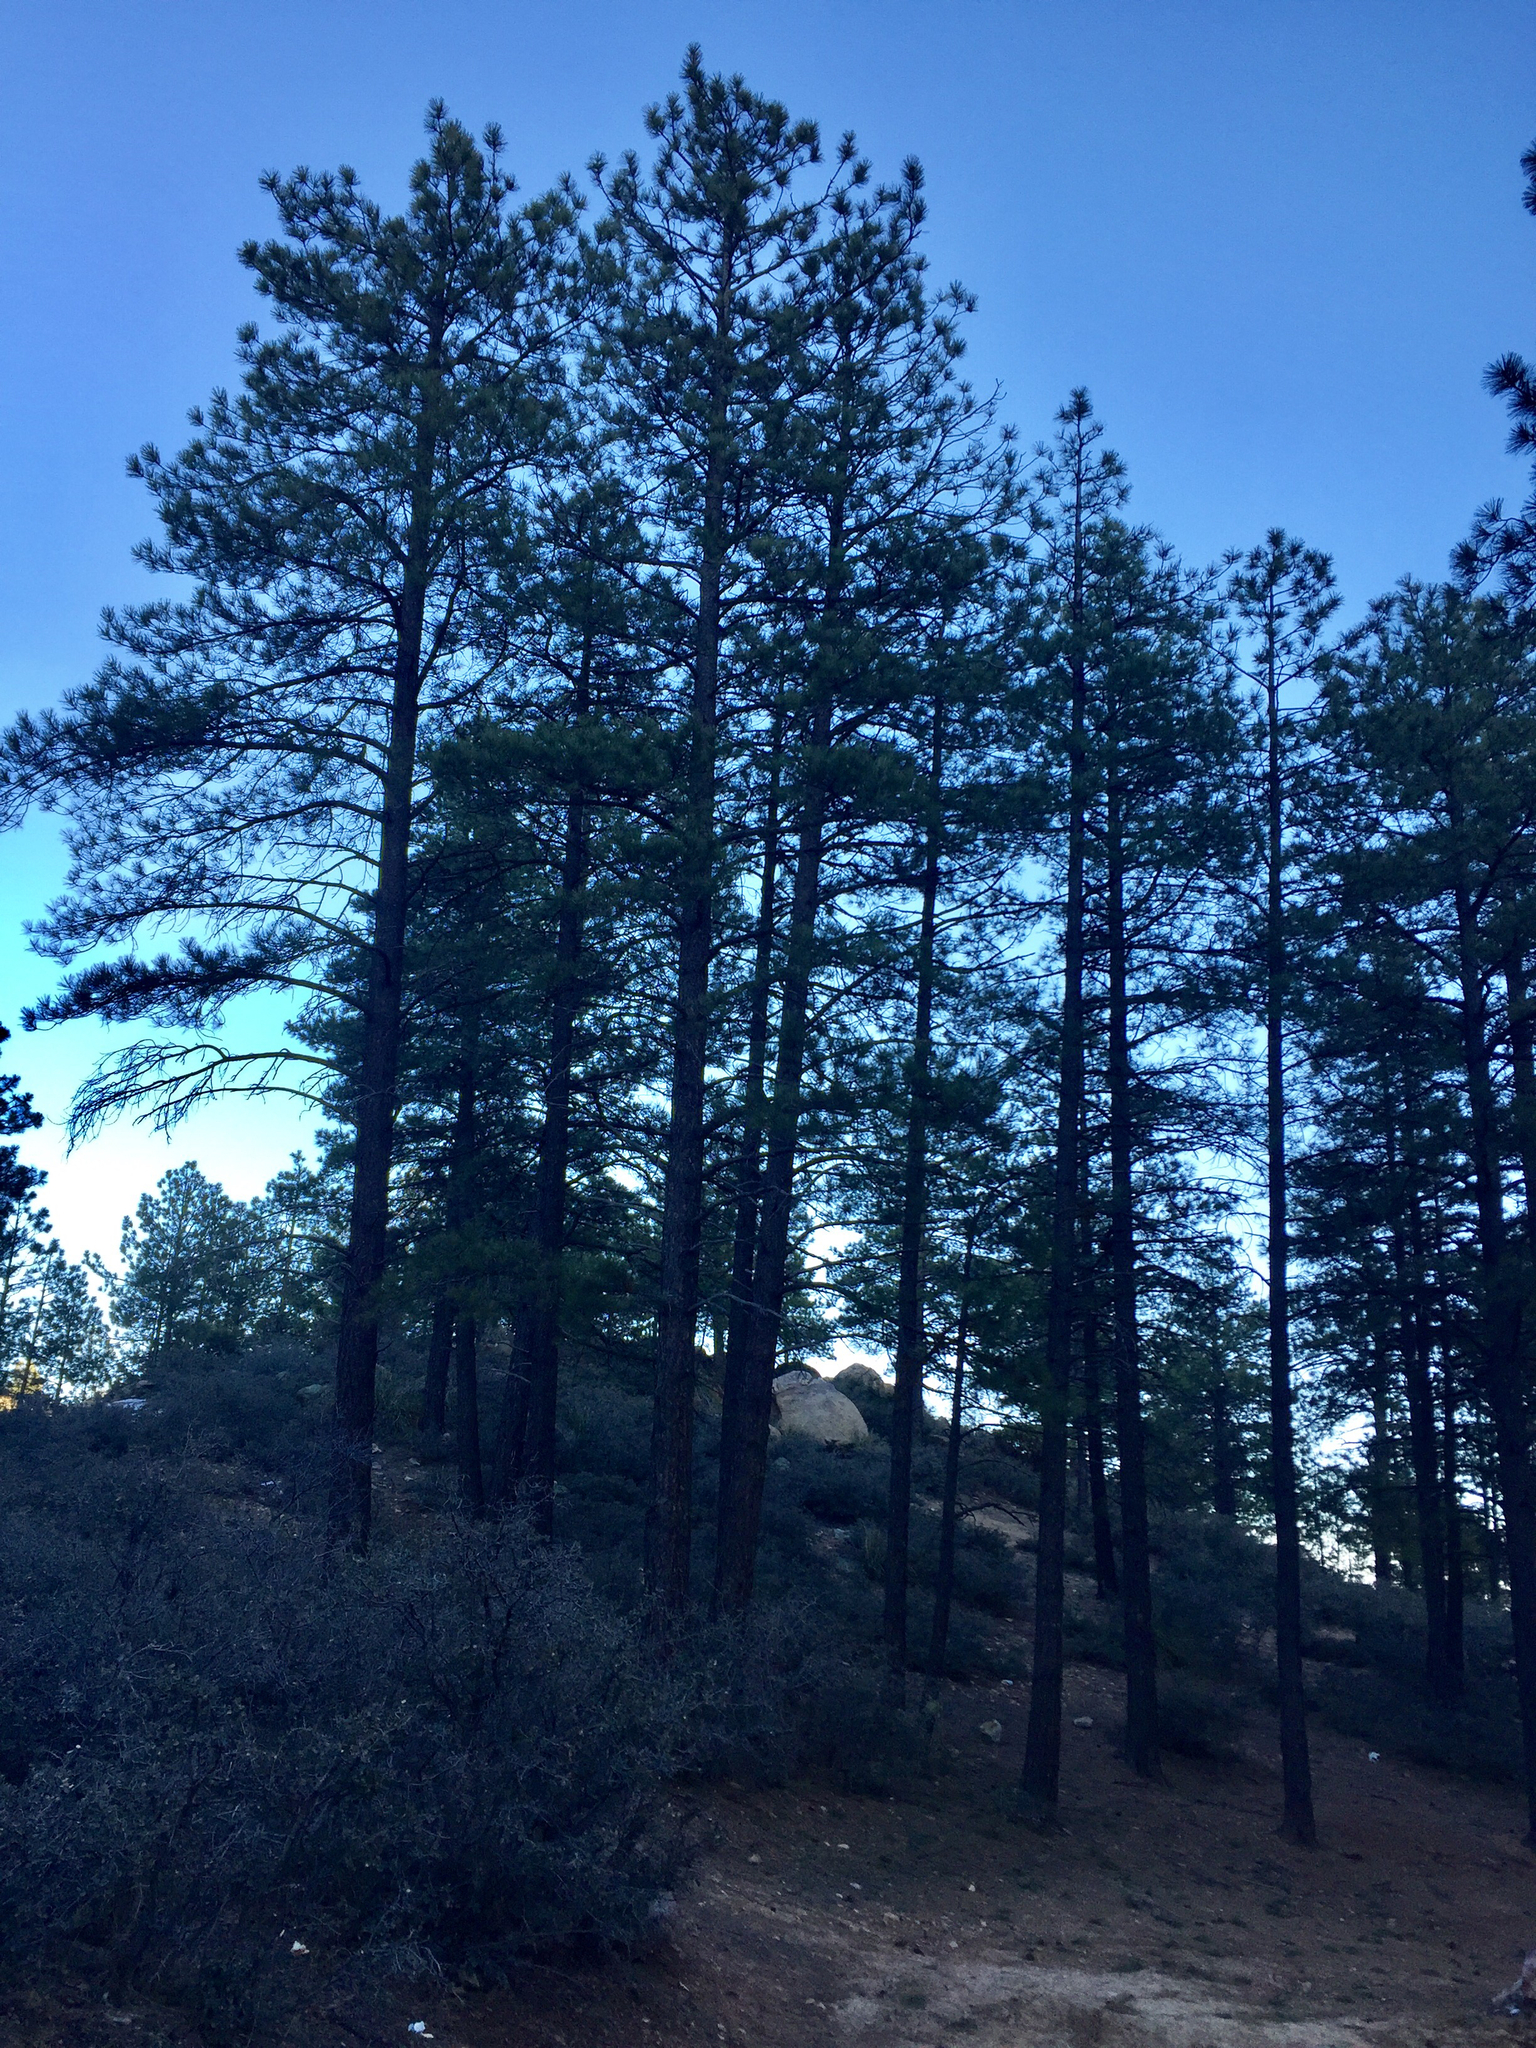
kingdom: Plantae
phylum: Tracheophyta
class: Pinopsida
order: Pinales
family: Pinaceae
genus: Pinus
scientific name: Pinus ponderosa
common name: Western yellow-pine
